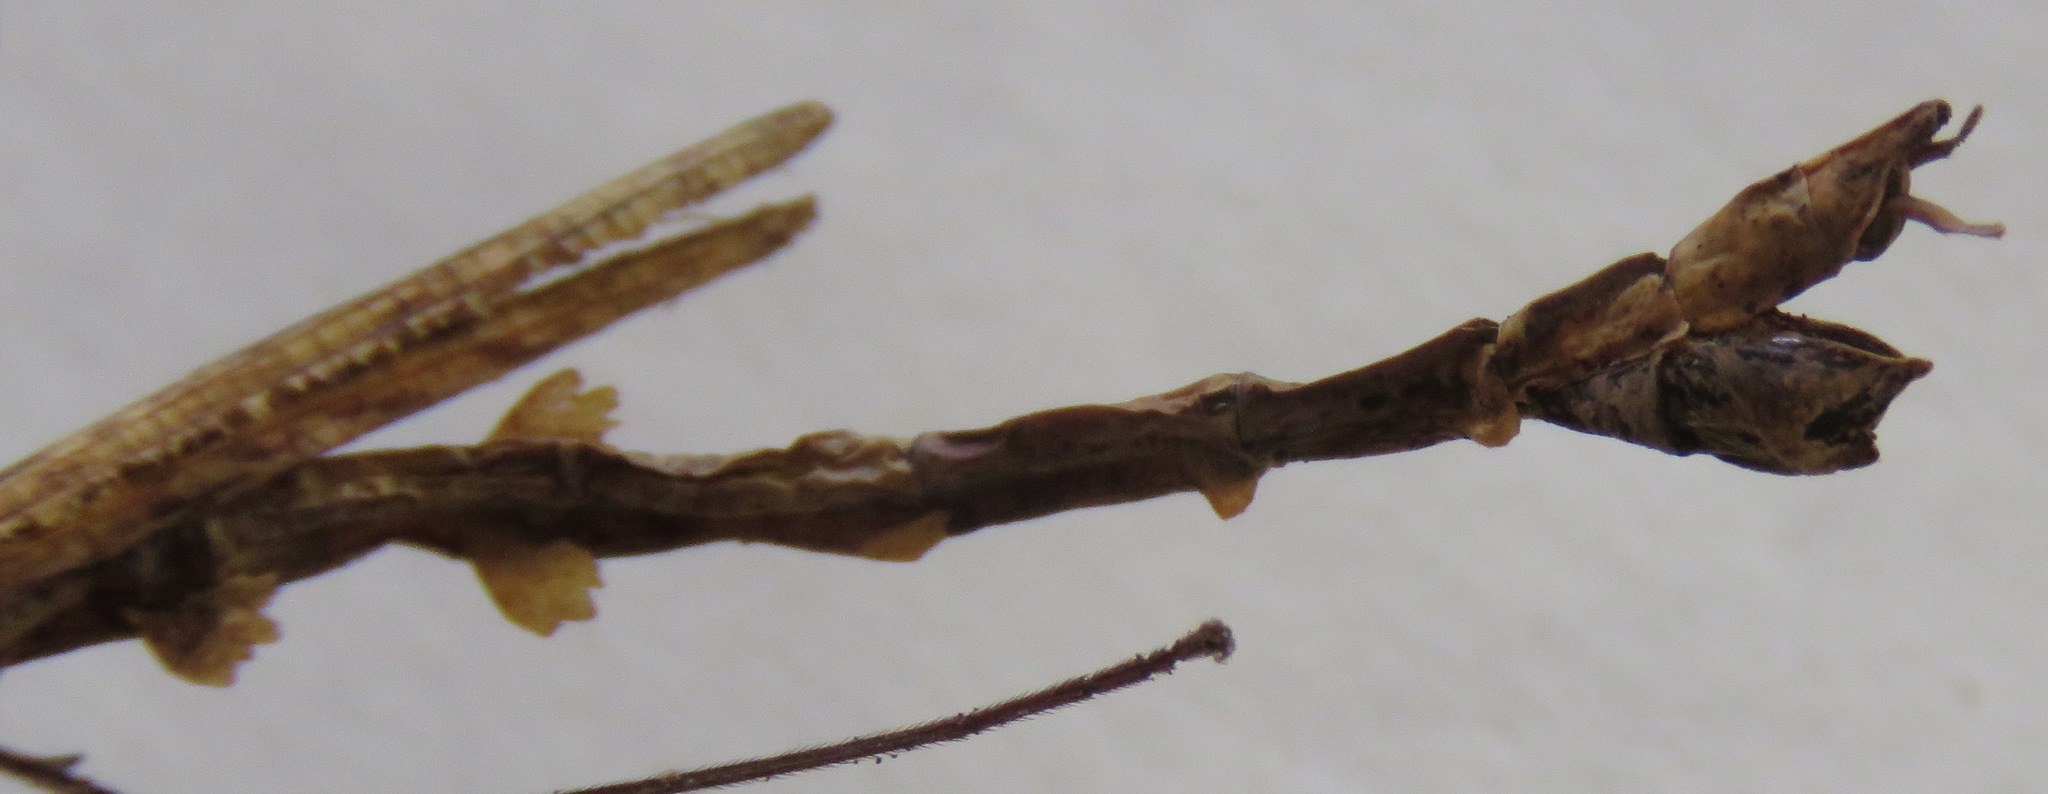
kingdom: Animalia
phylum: Arthropoda
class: Insecta
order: Phasmida
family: Diapheromeridae
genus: Trychopeplus
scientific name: Trychopeplus laciniatus
